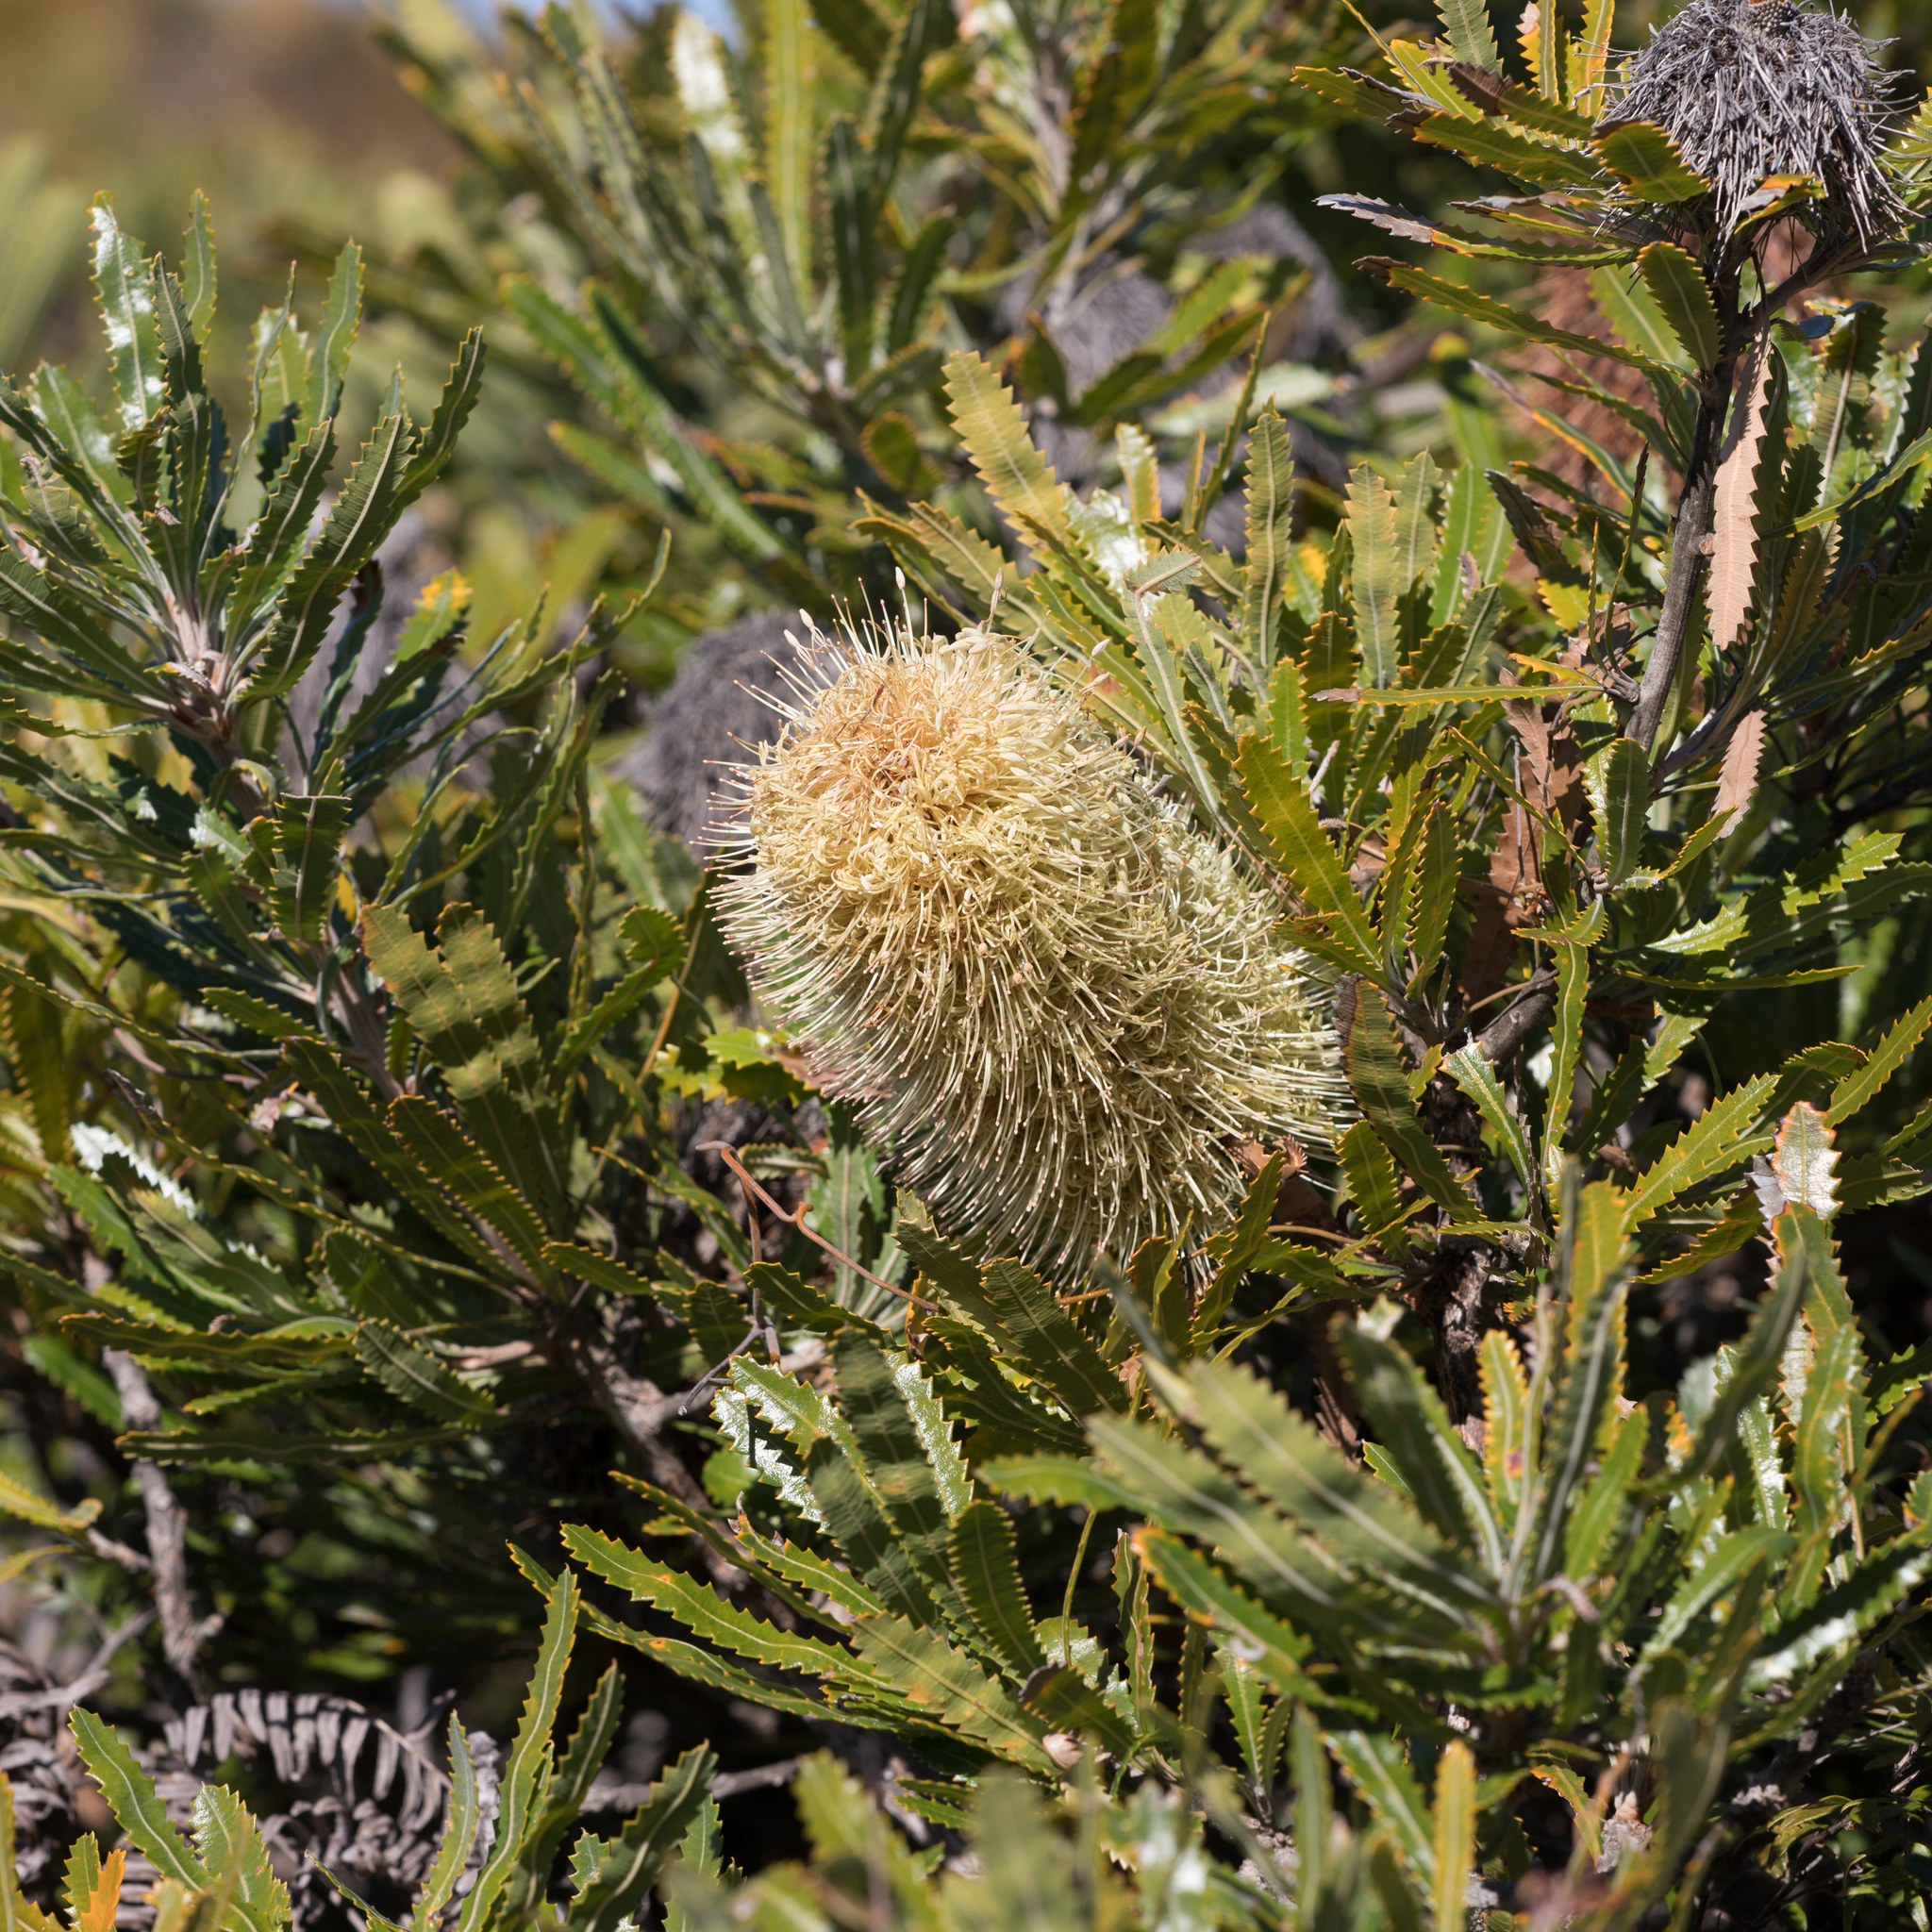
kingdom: Plantae
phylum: Tracheophyta
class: Magnoliopsida
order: Proteales
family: Proteaceae
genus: Banksia
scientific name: Banksia aemula
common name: Wallum banksia
